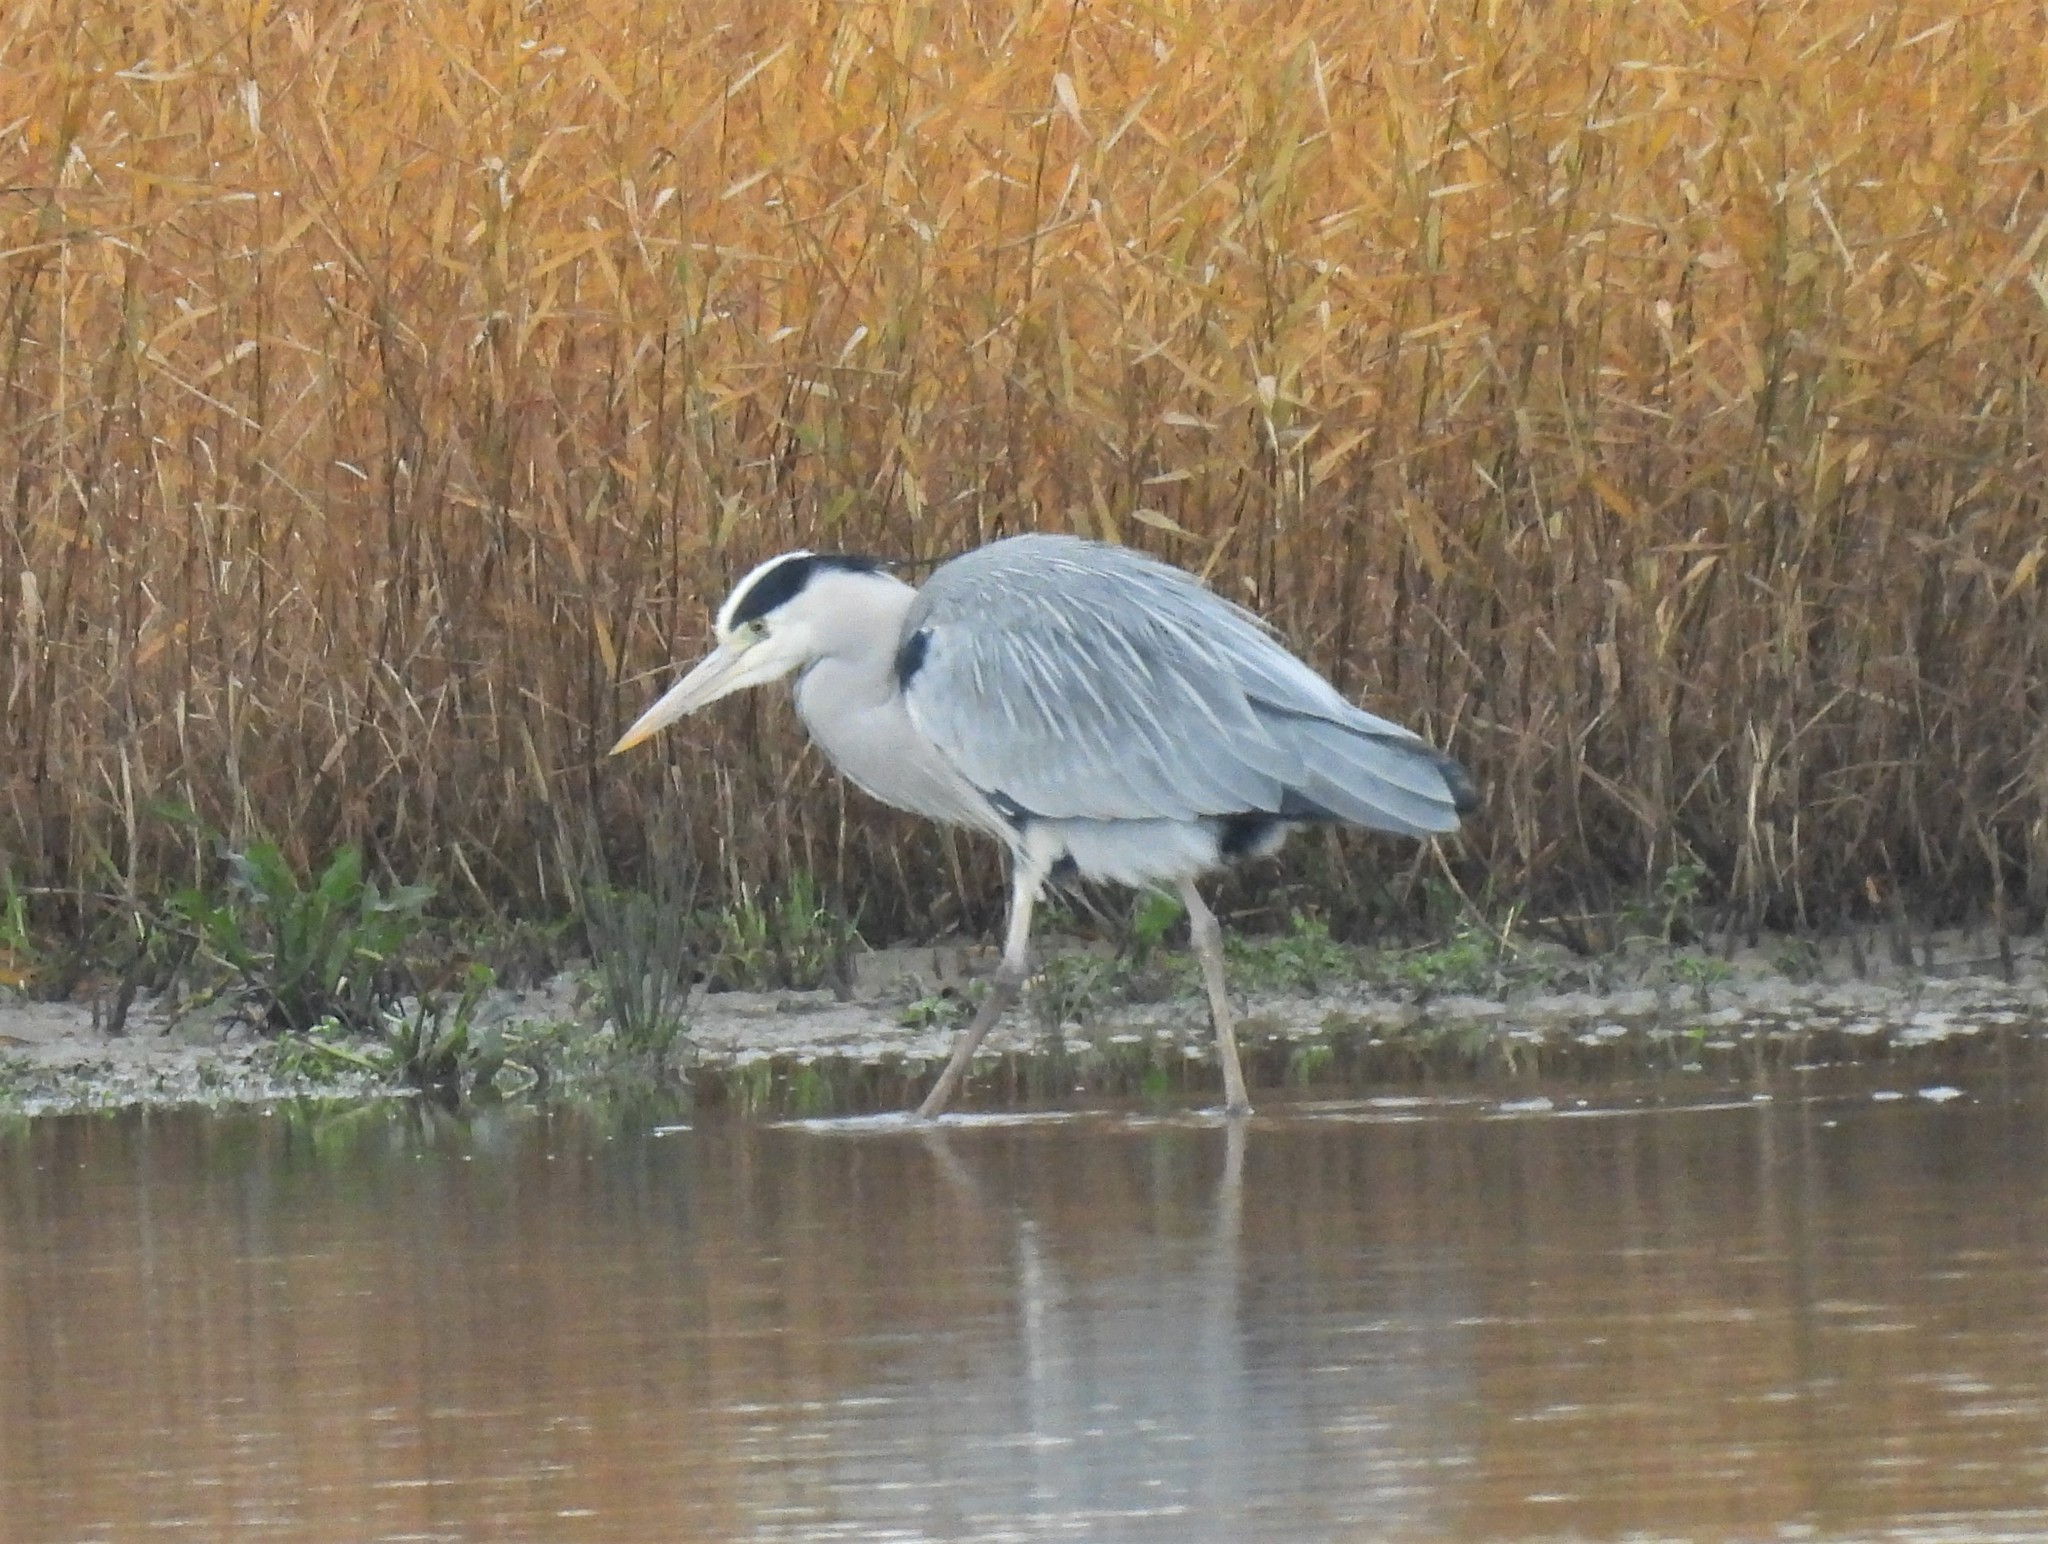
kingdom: Animalia
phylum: Chordata
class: Aves
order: Pelecaniformes
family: Ardeidae
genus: Ardea
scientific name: Ardea cinerea
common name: Grey heron
